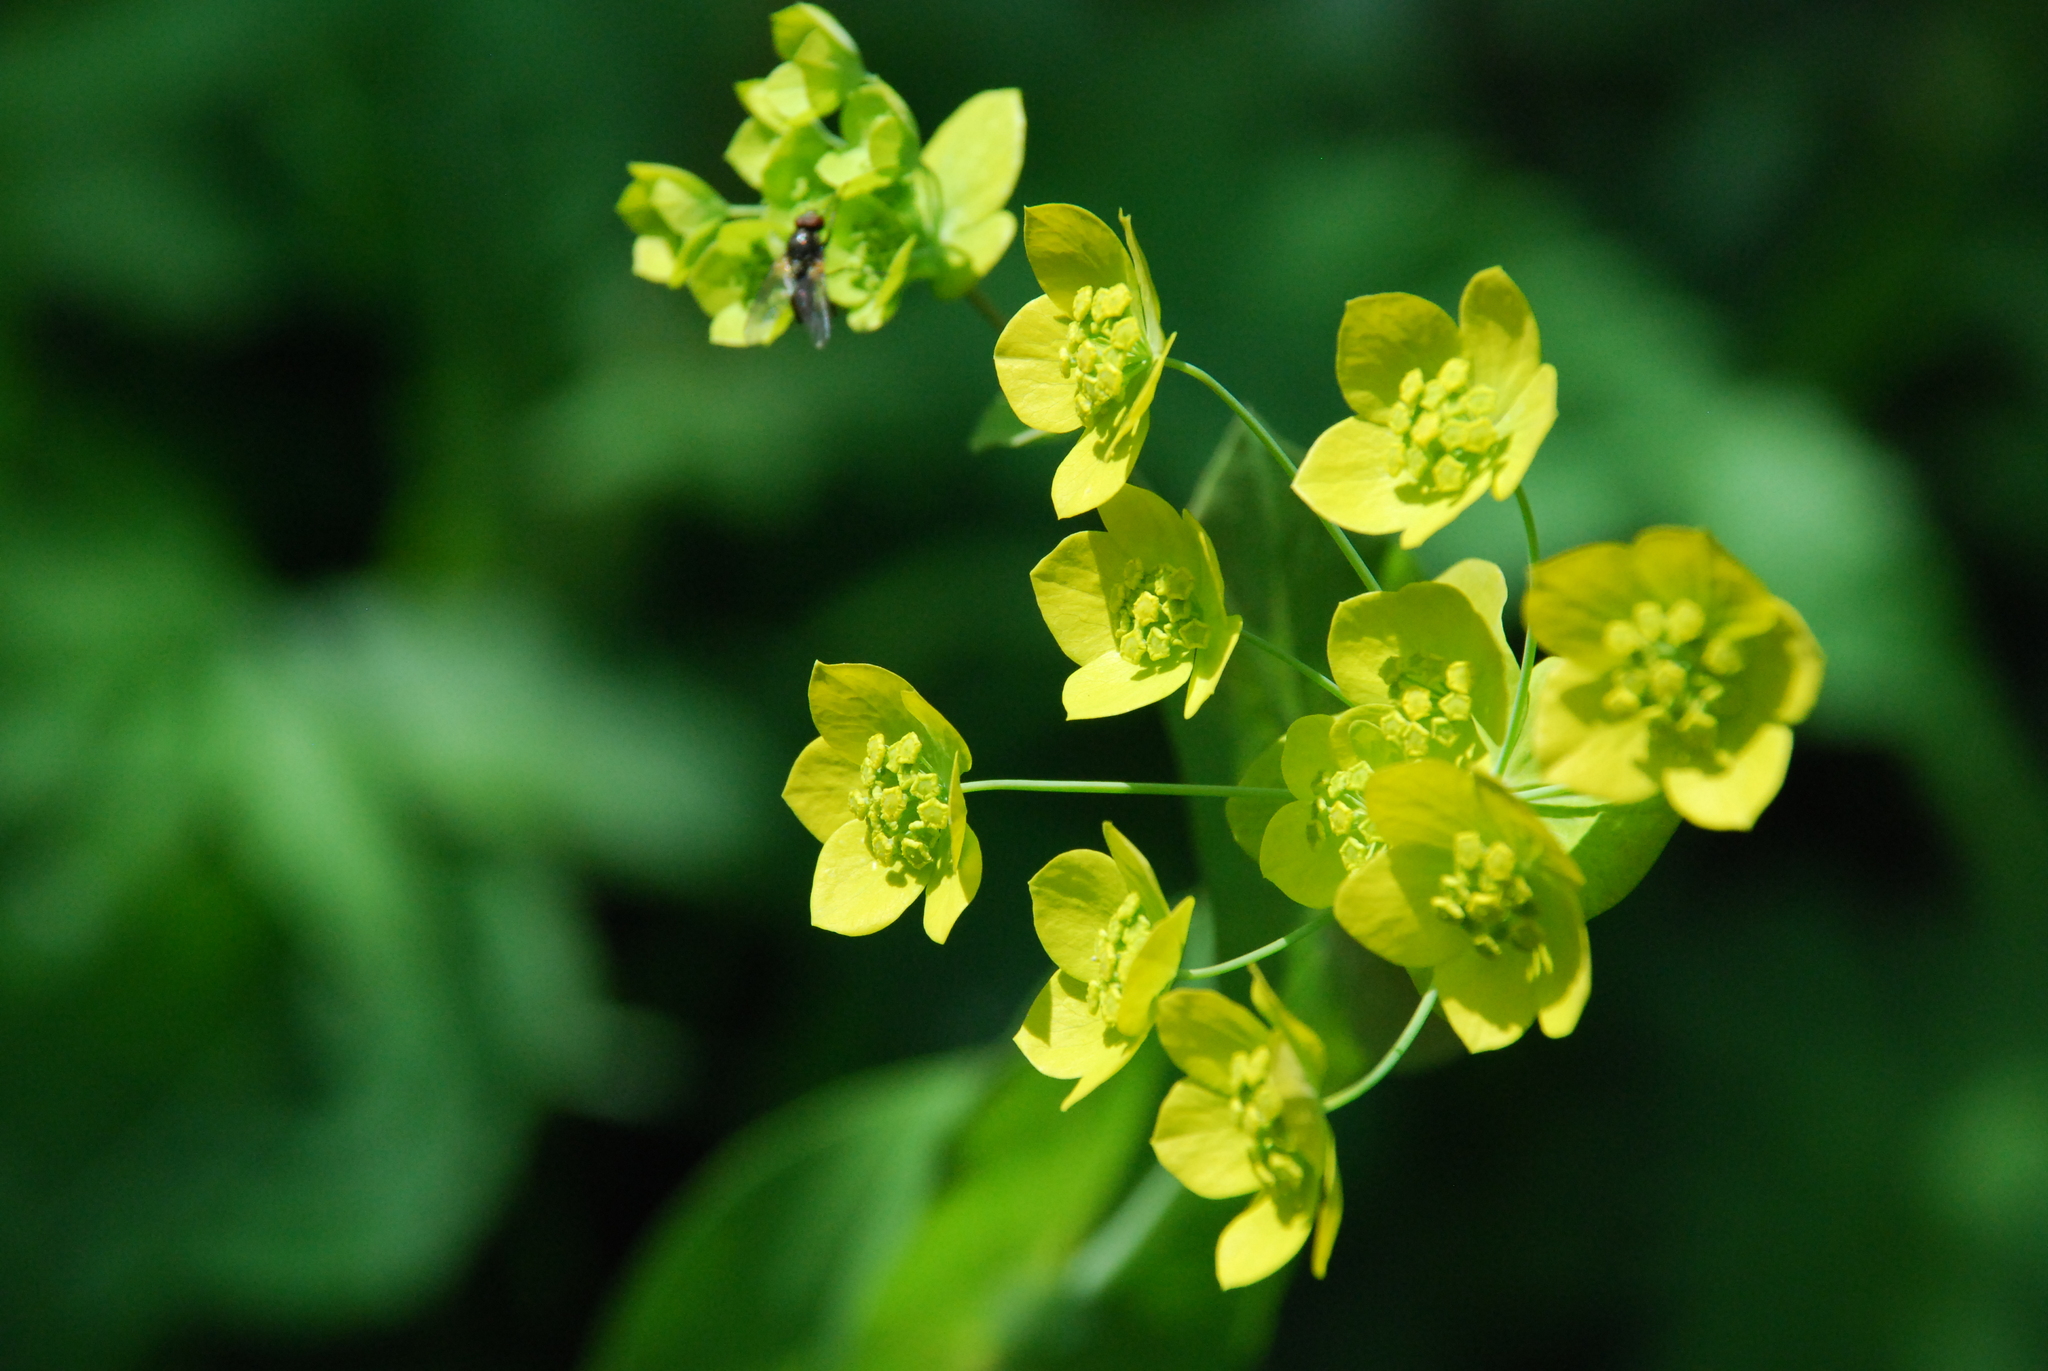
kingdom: Plantae
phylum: Tracheophyta
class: Magnoliopsida
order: Apiales
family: Apiaceae
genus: Bupleurum
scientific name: Bupleurum aureum
